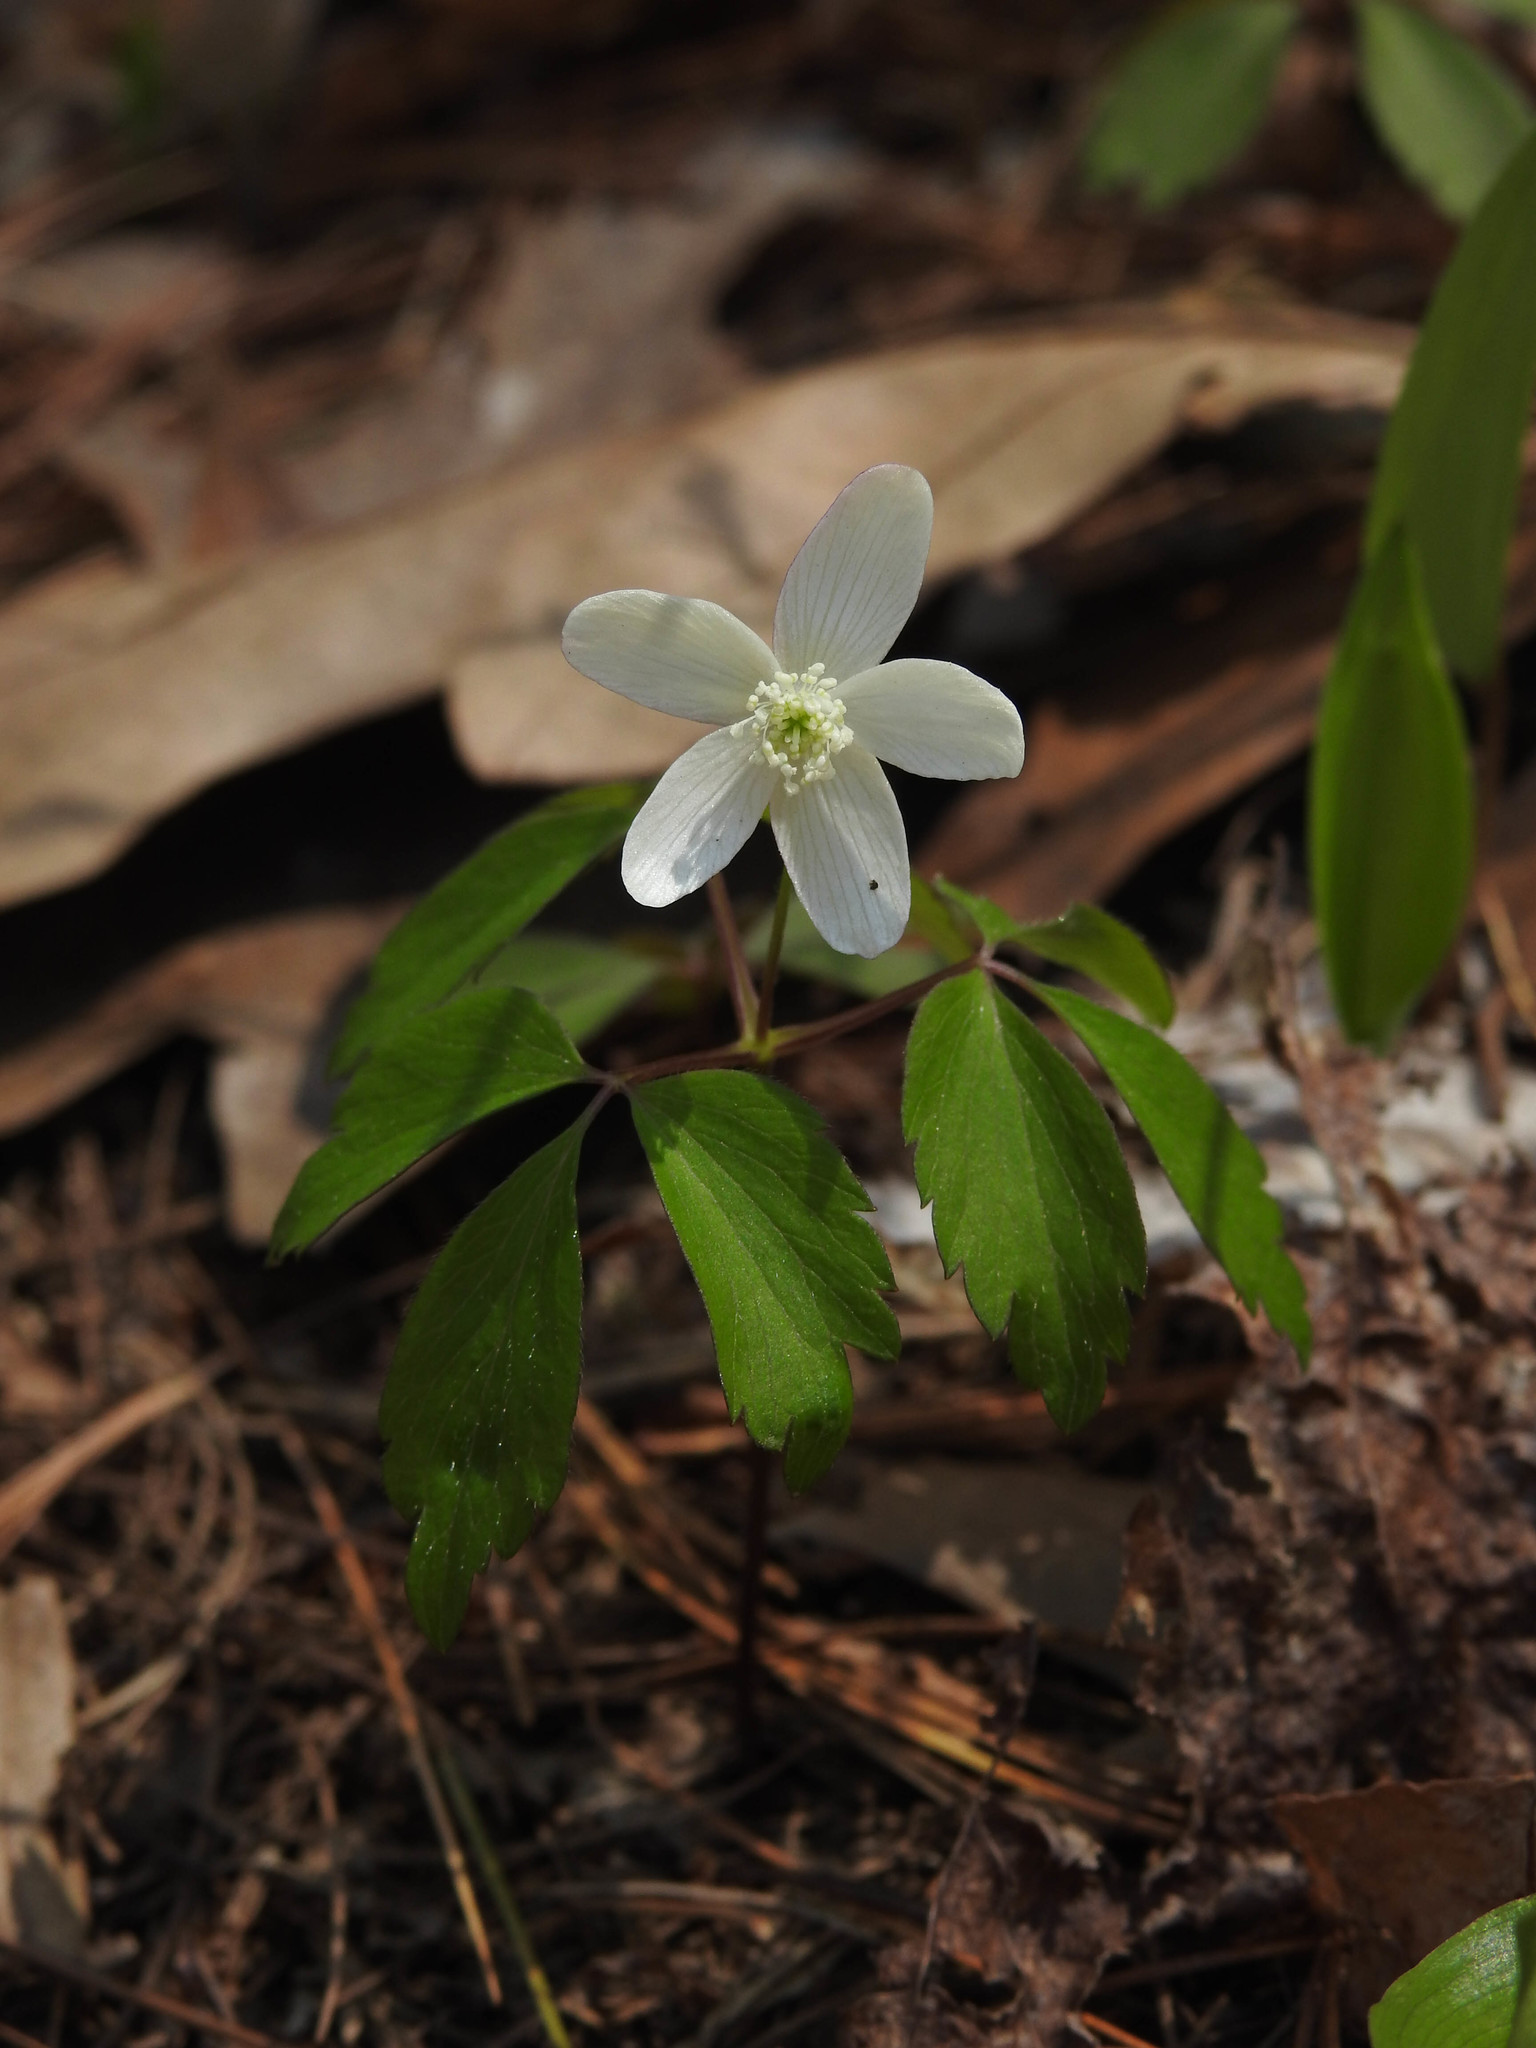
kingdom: Plantae
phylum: Tracheophyta
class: Magnoliopsida
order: Ranunculales
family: Ranunculaceae
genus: Anemone
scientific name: Anemone quinquefolia
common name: Wood anemone
